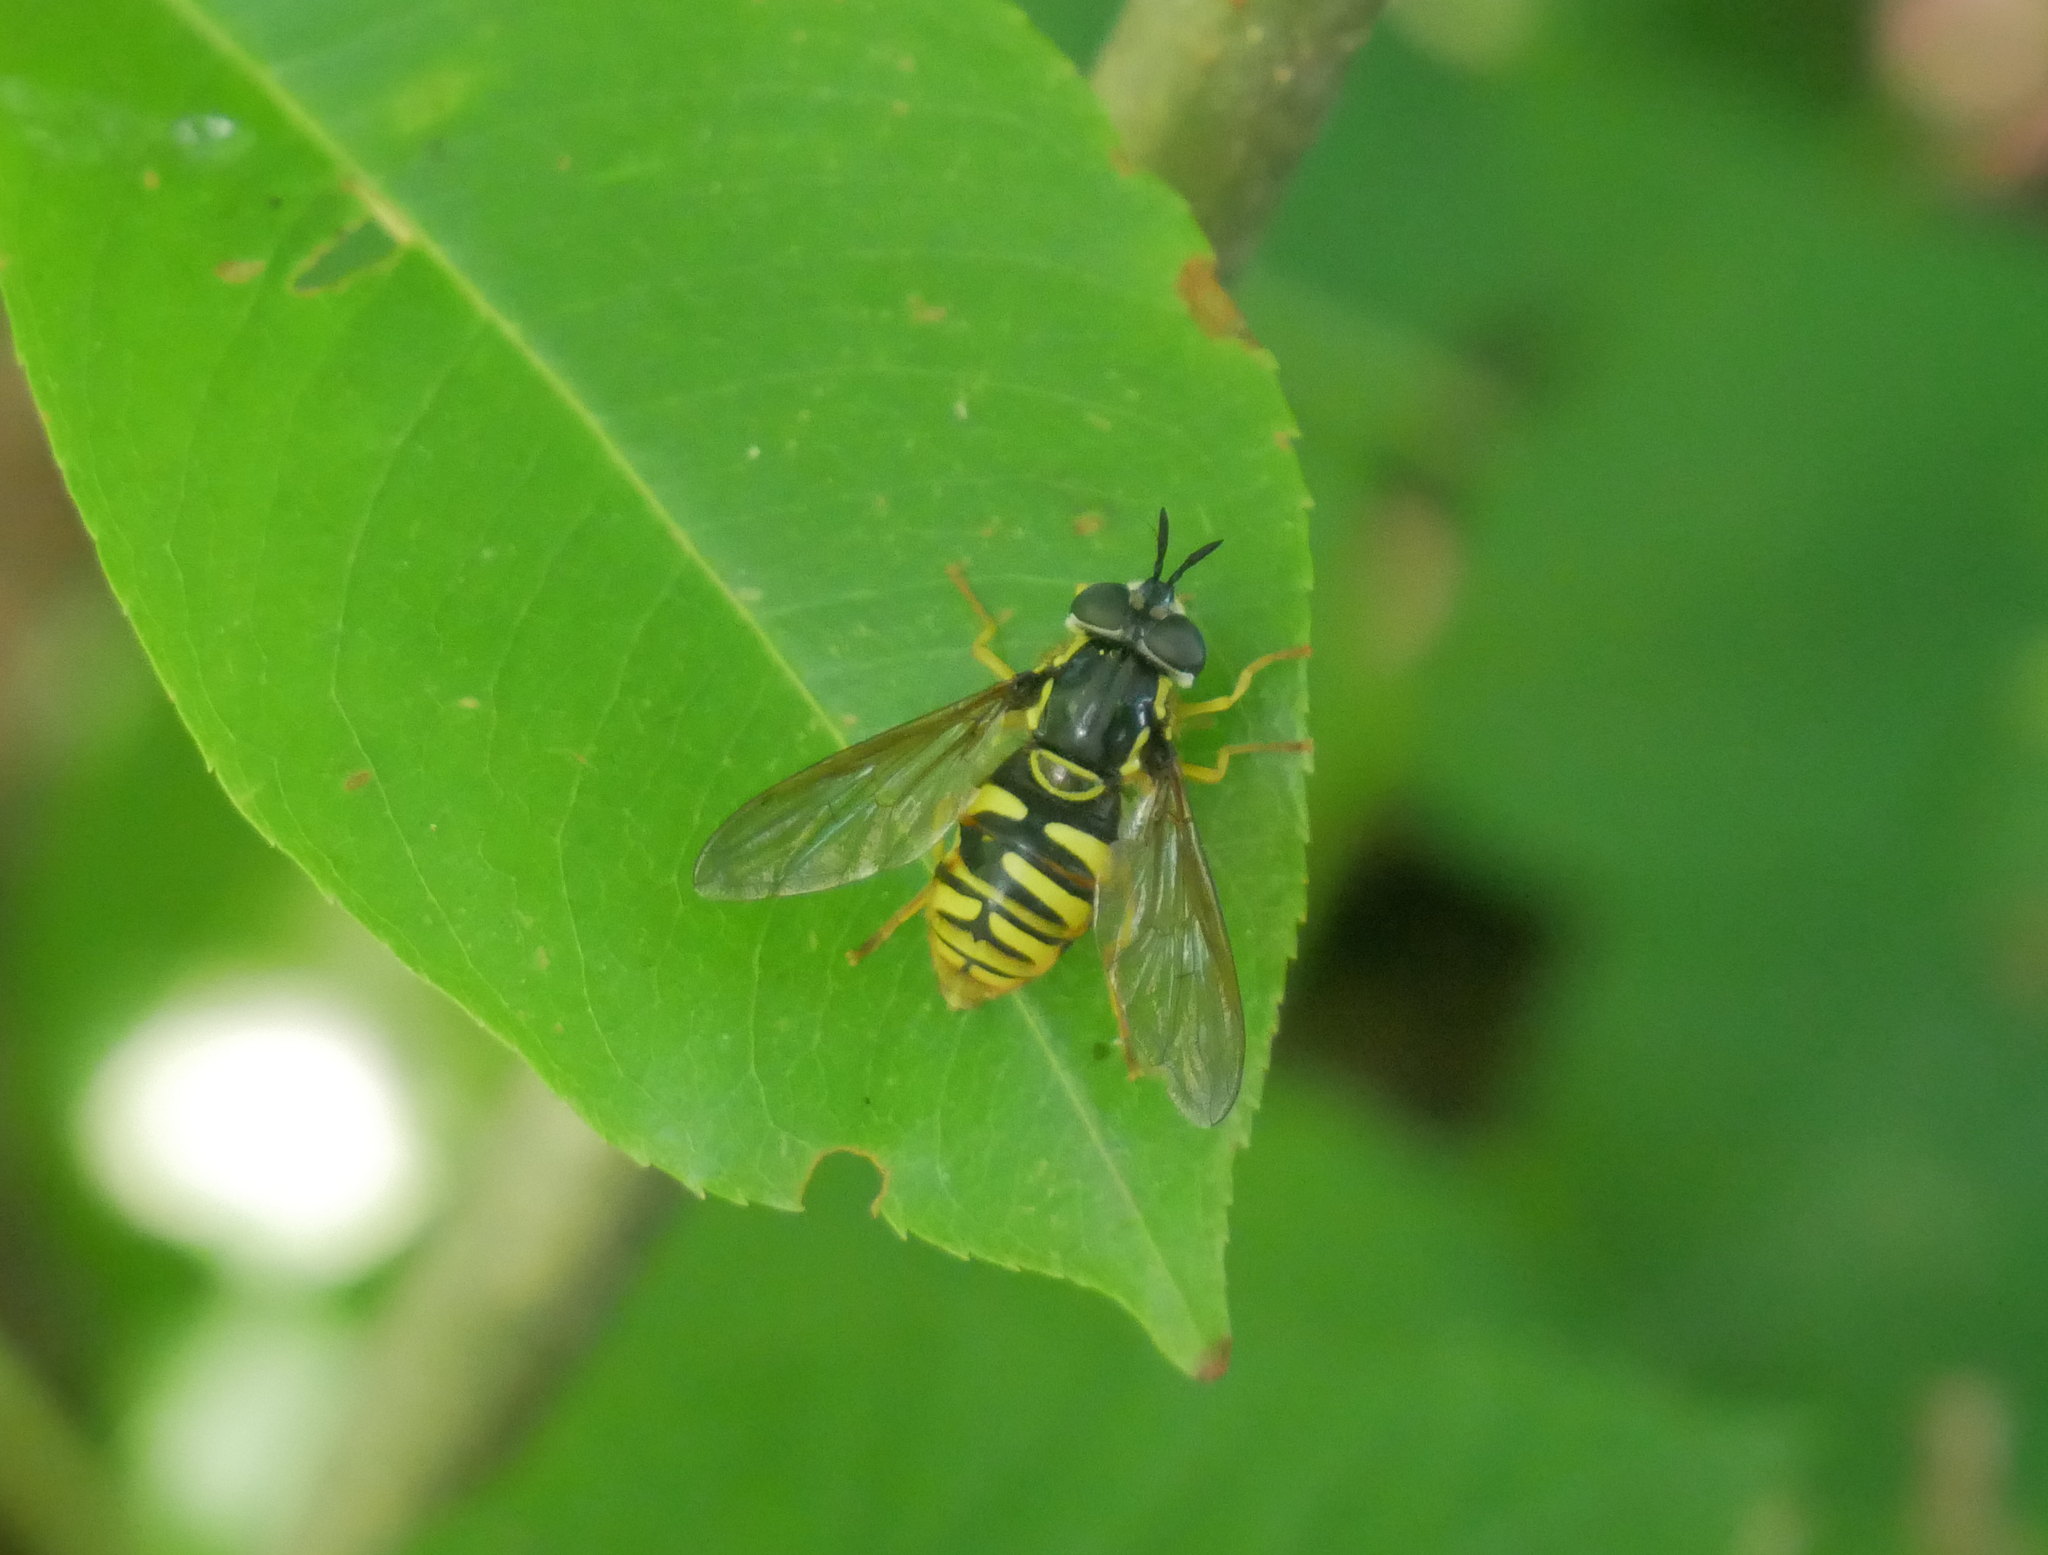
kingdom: Animalia
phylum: Arthropoda
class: Insecta
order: Diptera
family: Syrphidae
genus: Chrysotoxum
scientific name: Chrysotoxum cautum
